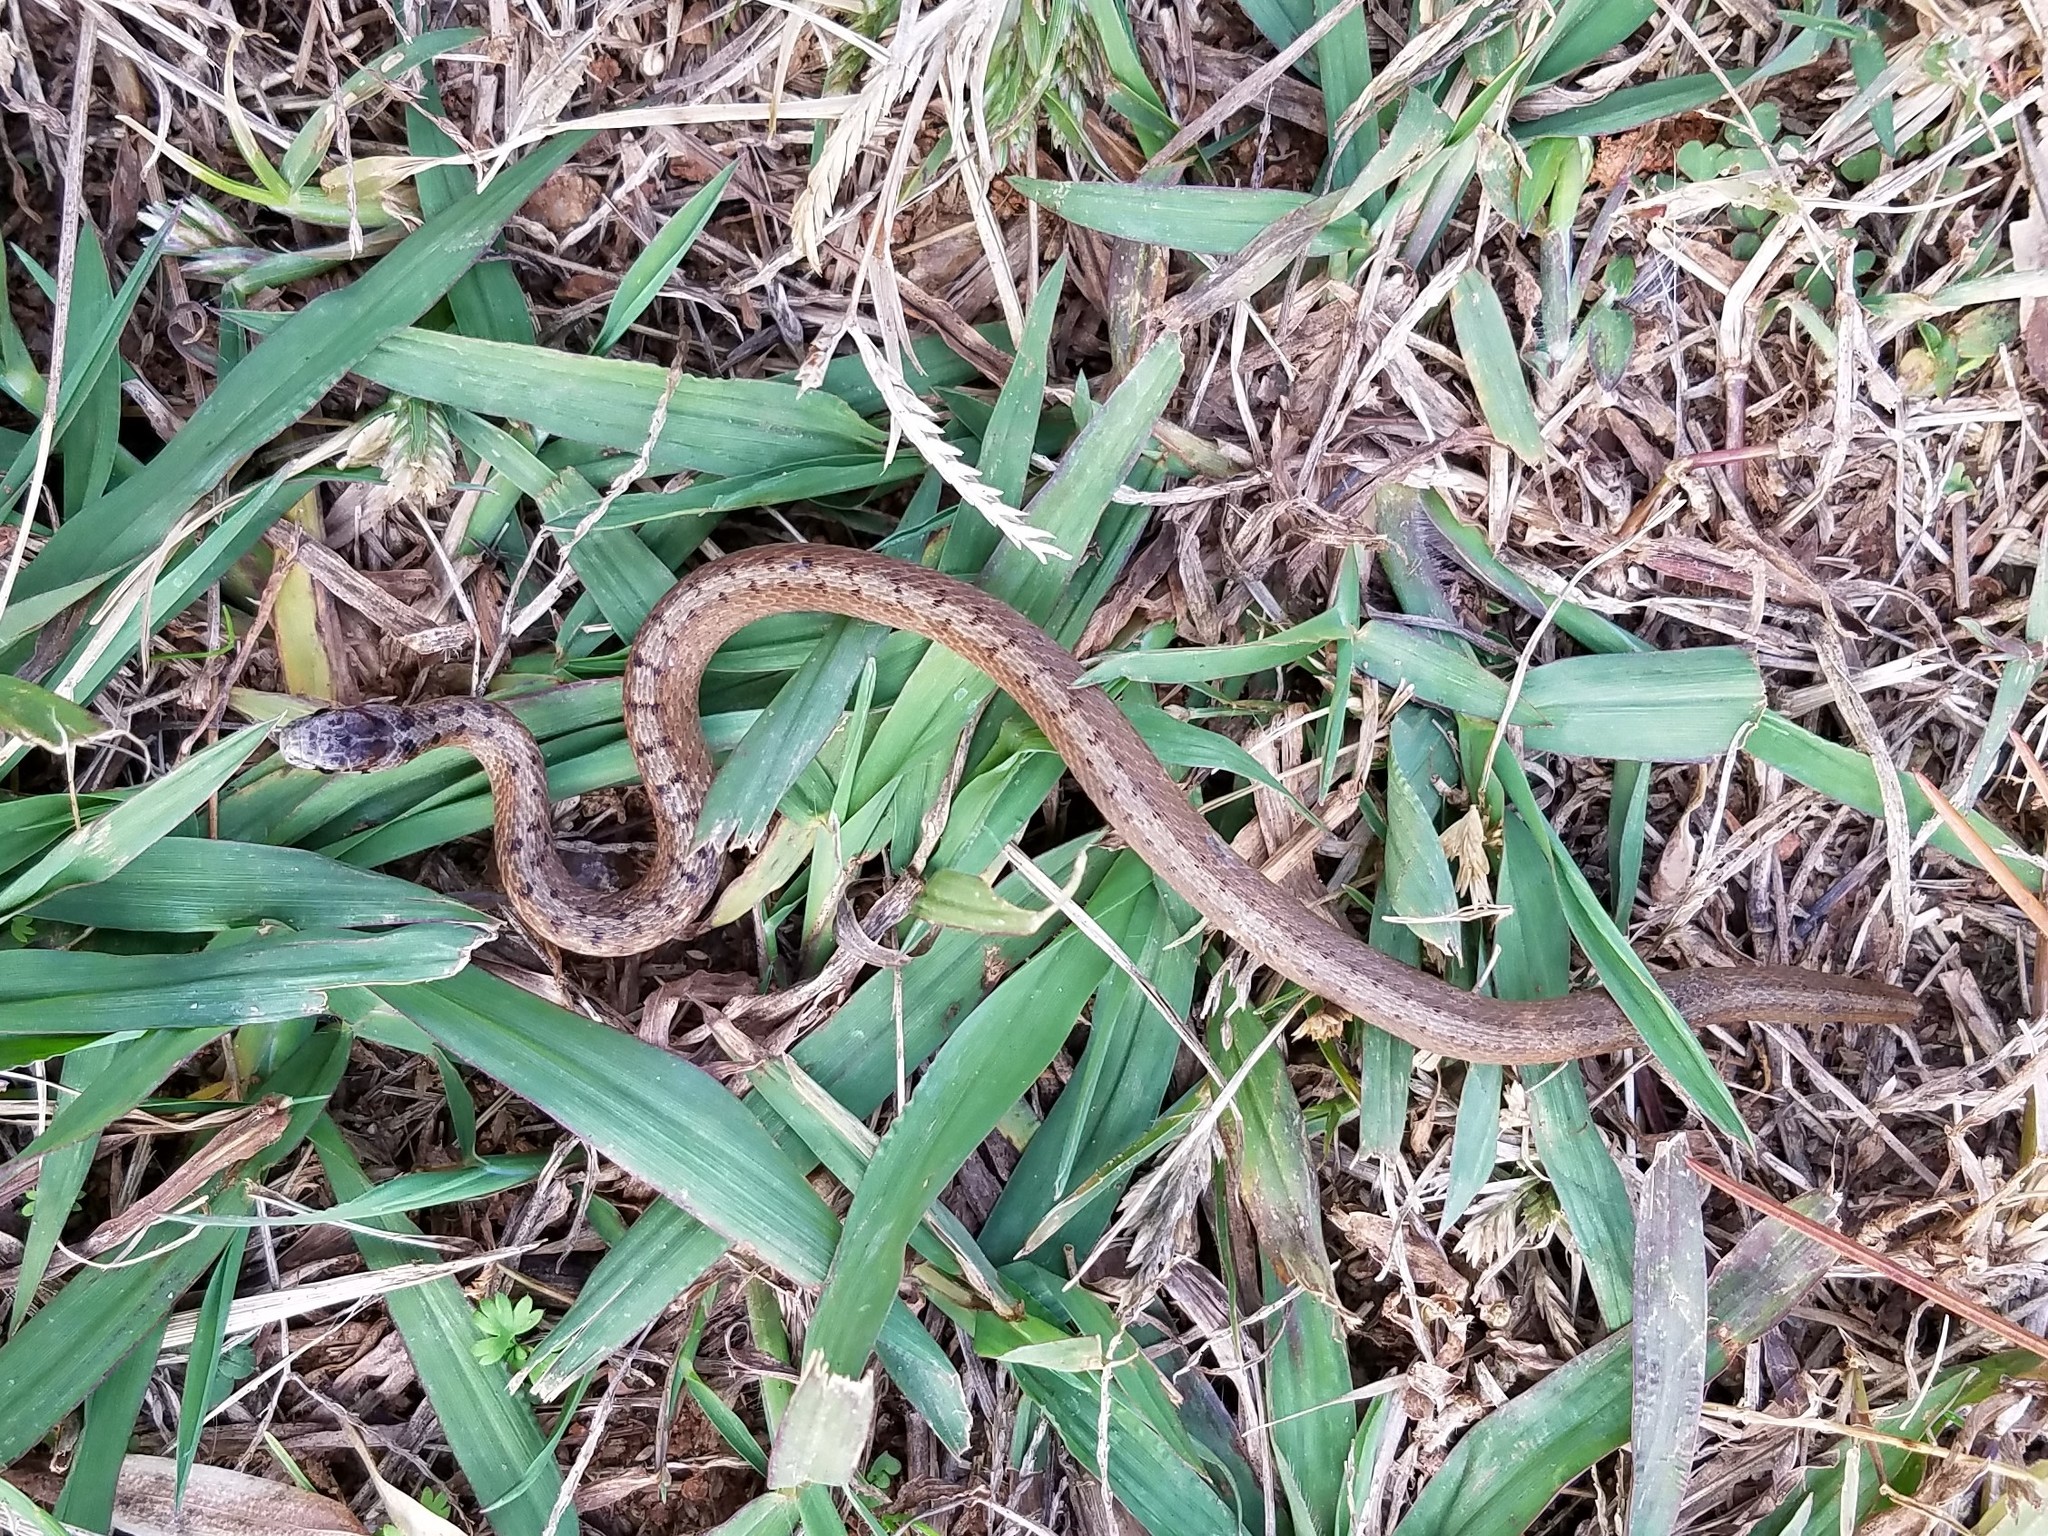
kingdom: Animalia
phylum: Chordata
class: Squamata
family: Colubridae
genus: Storeria
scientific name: Storeria dekayi
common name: (dekay’s) brown snake
